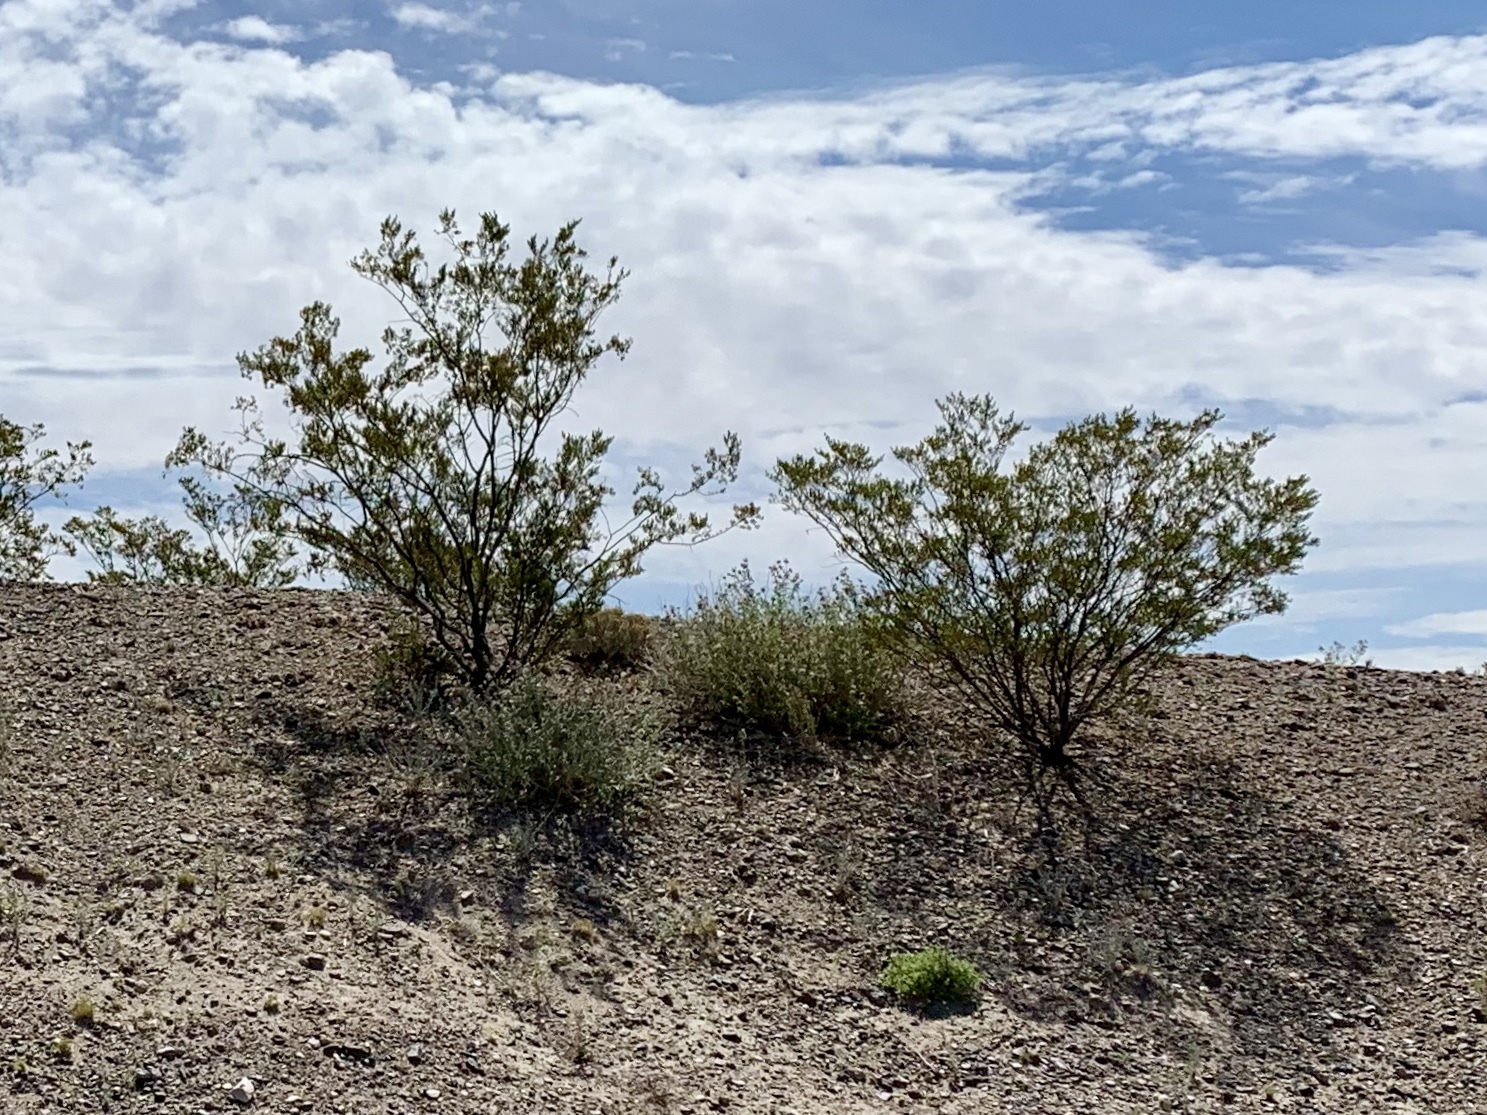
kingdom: Plantae
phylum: Tracheophyta
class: Magnoliopsida
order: Zygophyllales
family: Zygophyllaceae
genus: Larrea
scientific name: Larrea tridentata
